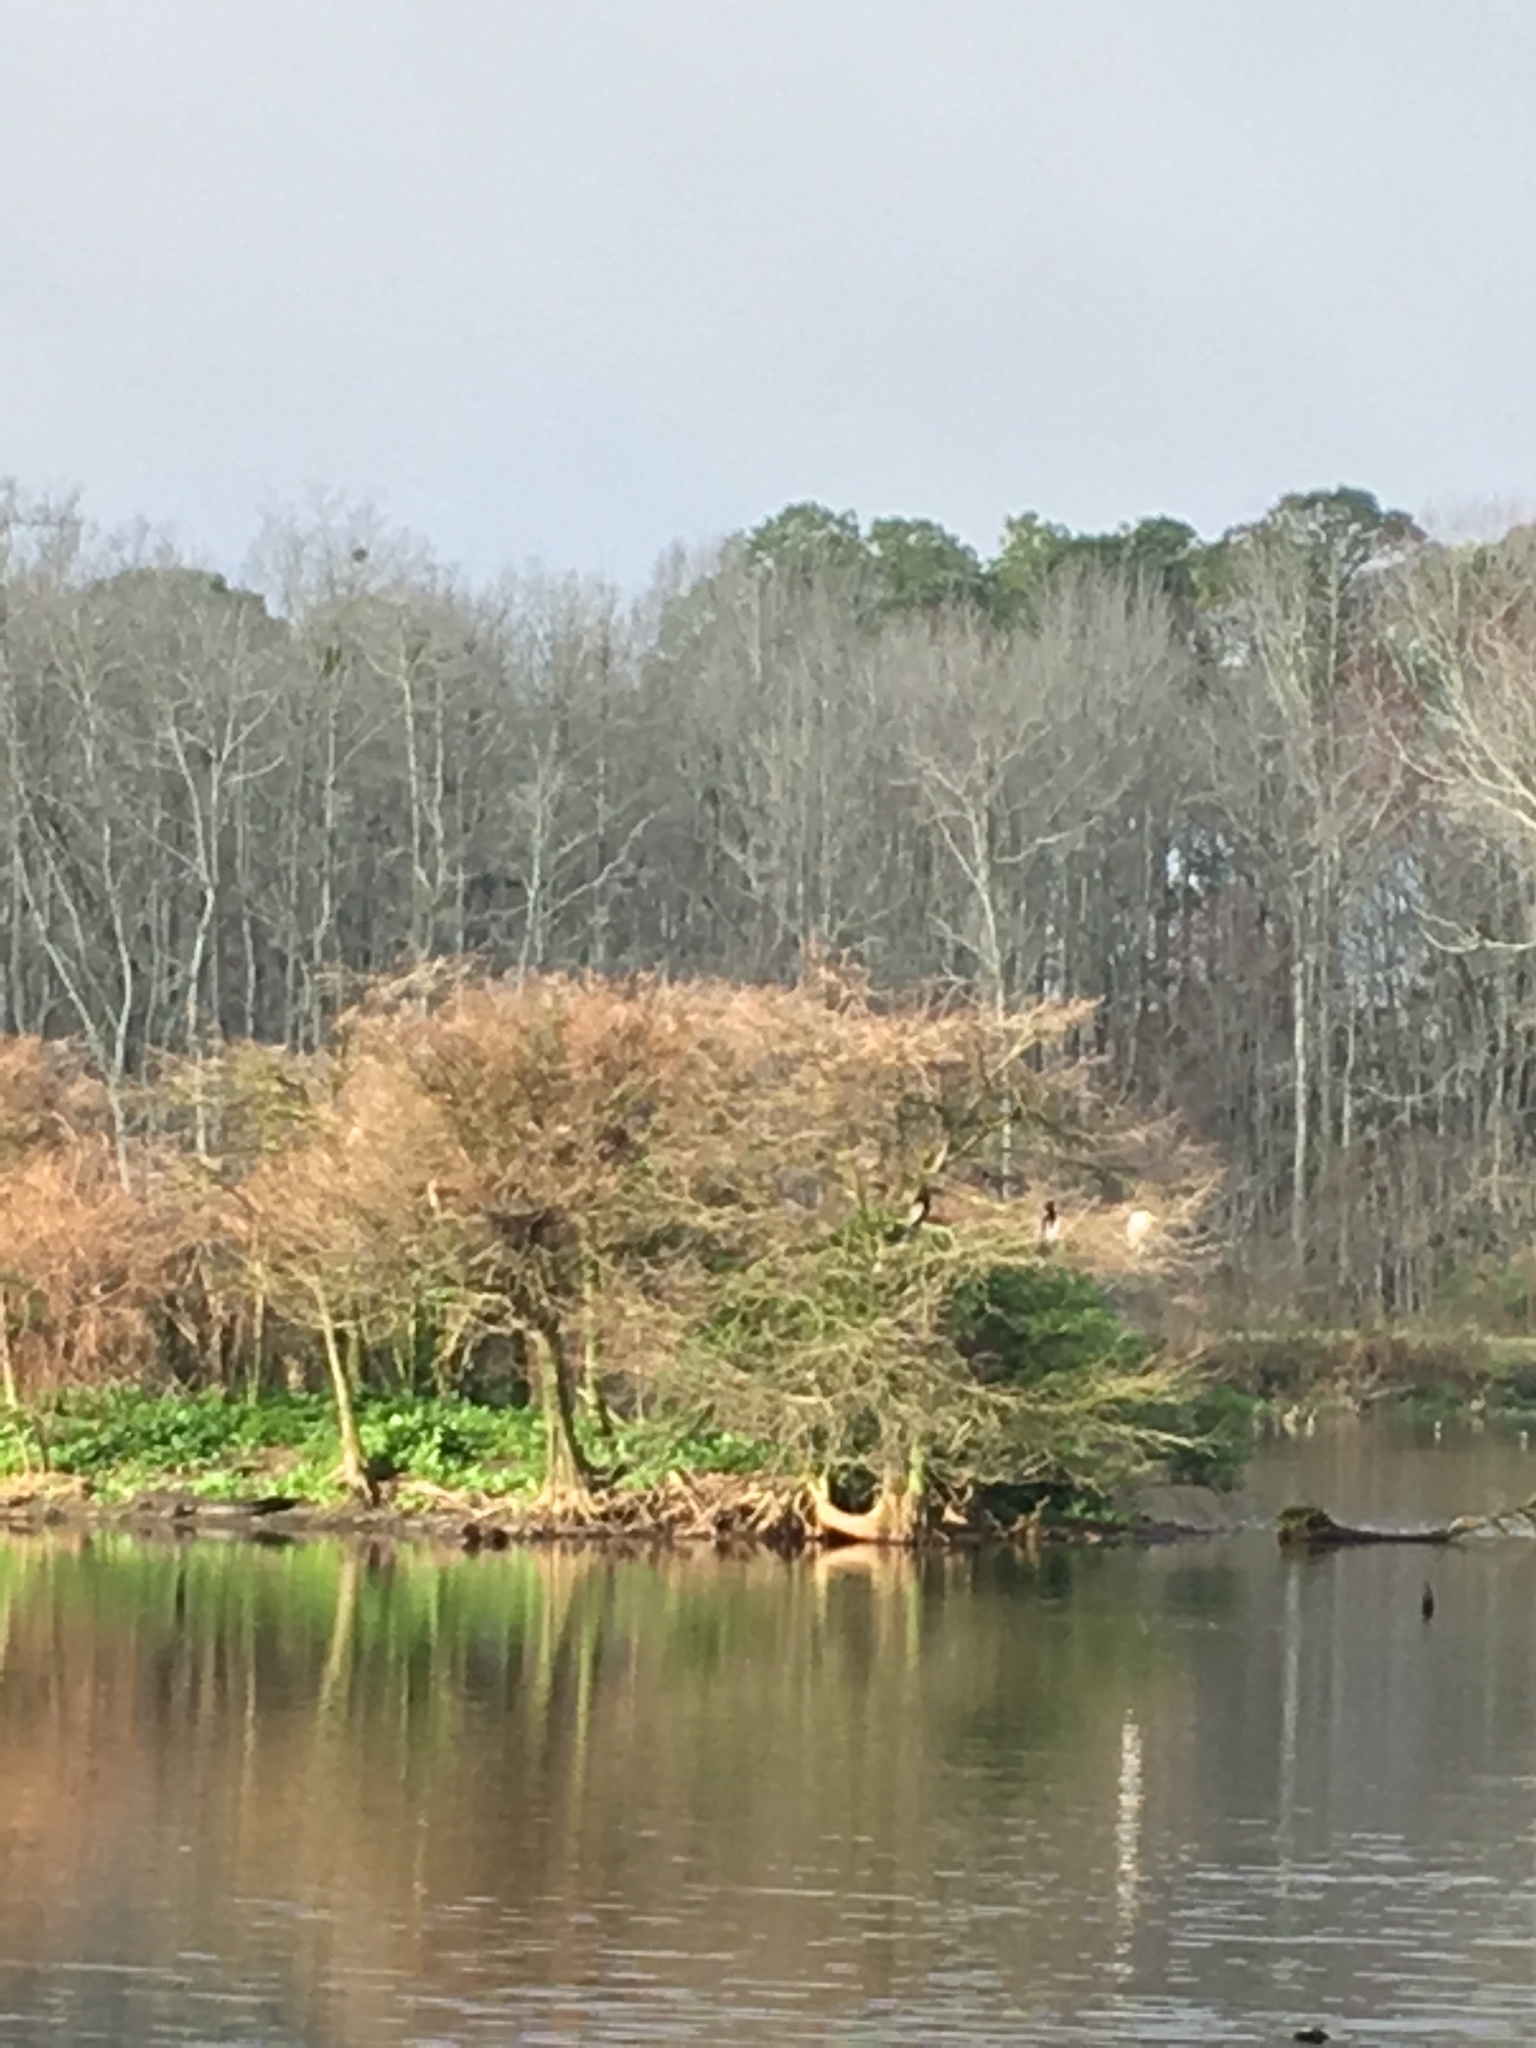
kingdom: Animalia
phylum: Chordata
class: Aves
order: Suliformes
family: Anhingidae
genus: Anhinga
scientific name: Anhinga anhinga
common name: Anhinga
